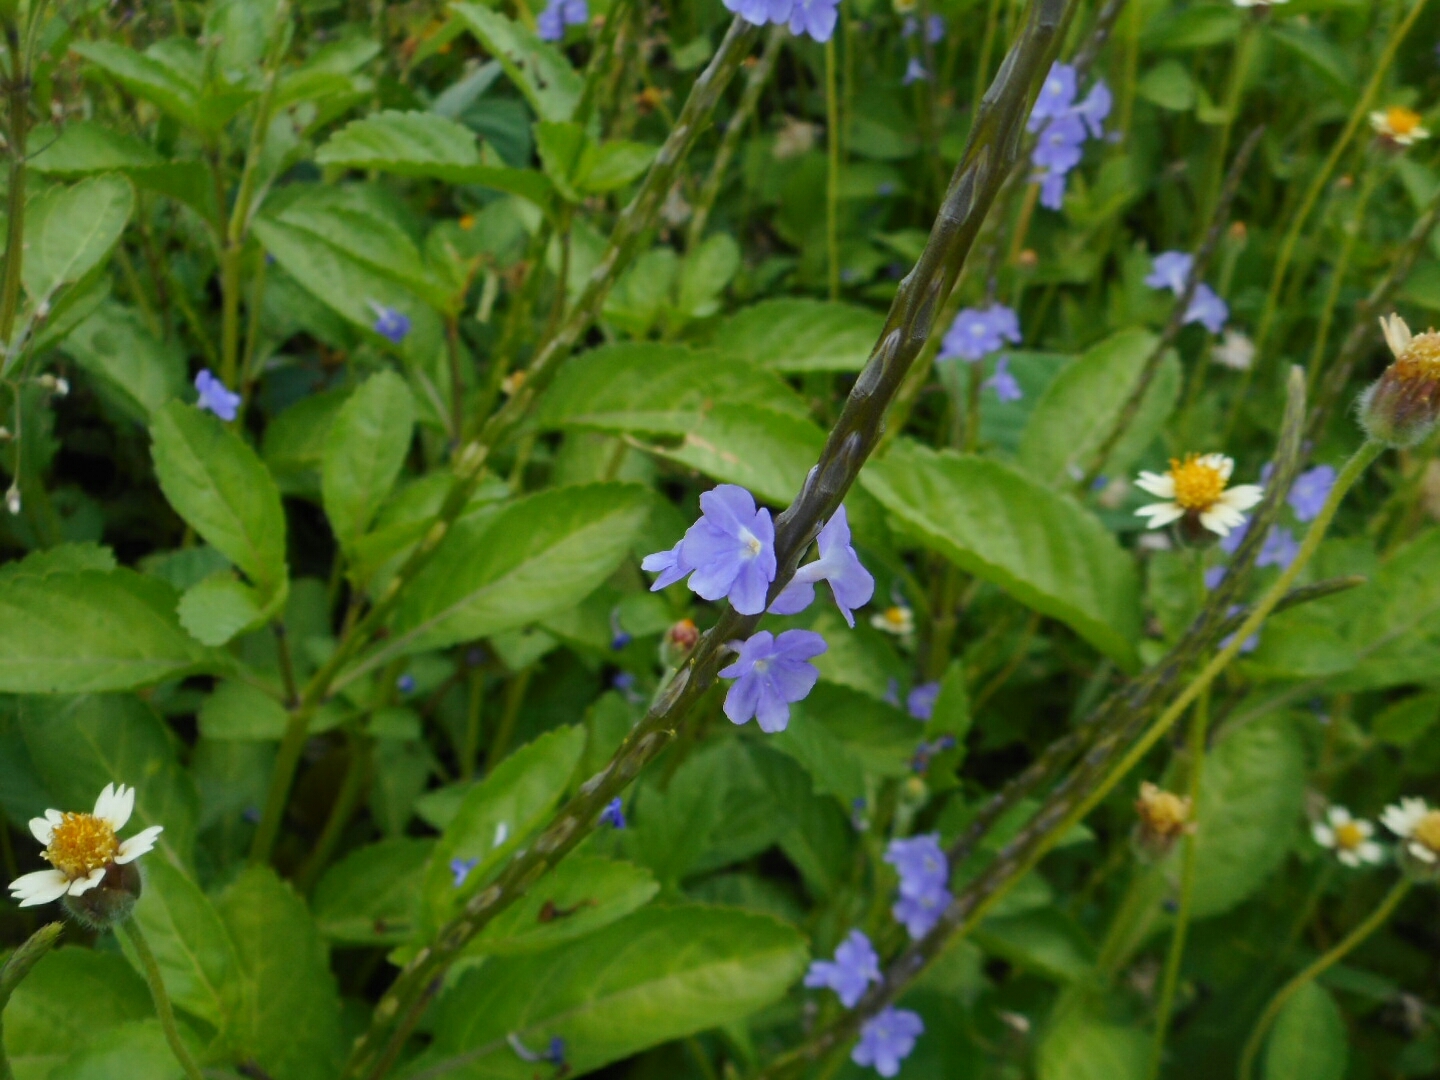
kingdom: Plantae
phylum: Tracheophyta
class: Magnoliopsida
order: Lamiales
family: Verbenaceae
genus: Stachytarpheta
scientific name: Stachytarpheta jamaicensis
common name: Light-blue snakeweed
